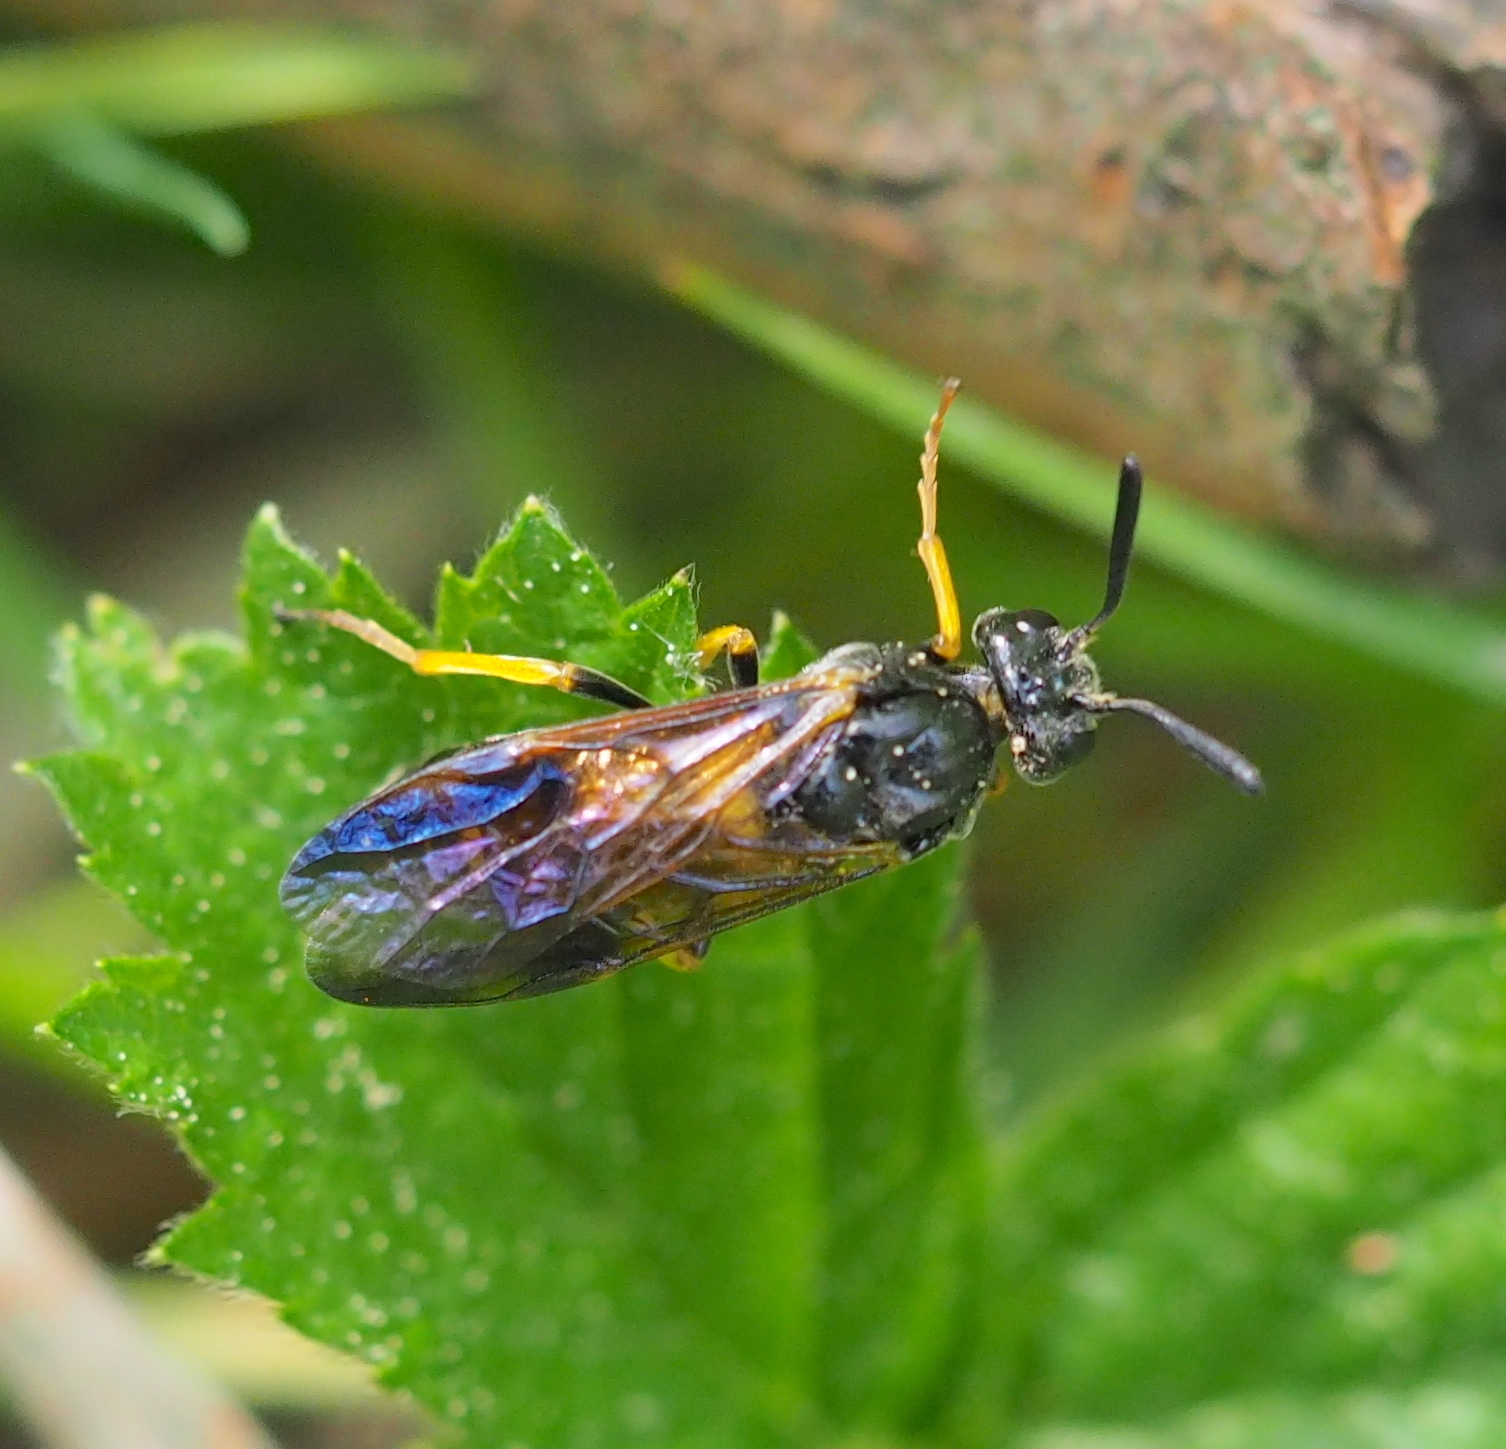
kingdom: Animalia
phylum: Arthropoda
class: Insecta
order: Hymenoptera
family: Argidae
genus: Arge
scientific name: Arge rustica
